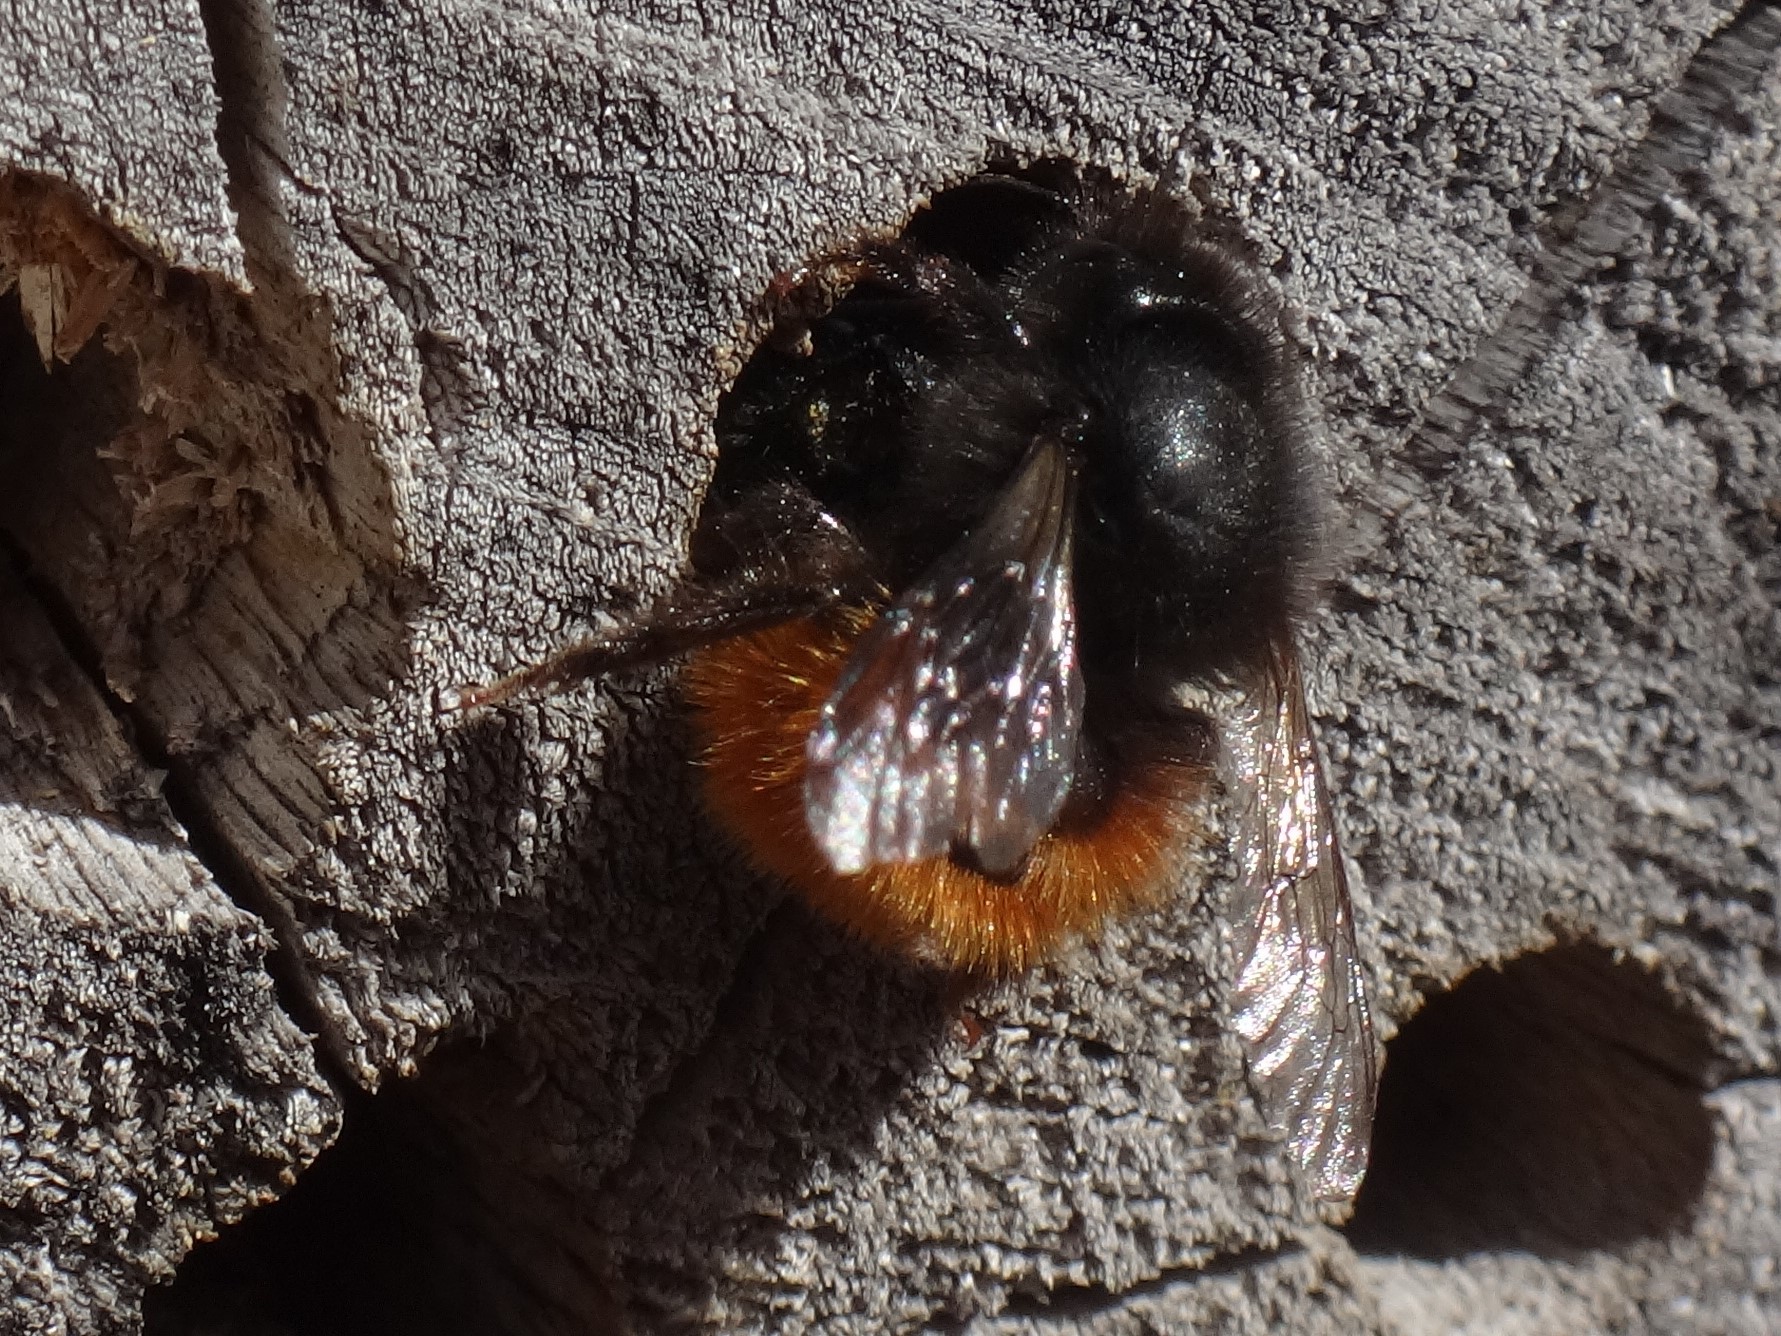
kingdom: Animalia
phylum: Arthropoda
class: Insecta
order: Hymenoptera
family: Megachilidae
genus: Osmia
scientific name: Osmia cornuta
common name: Mason bee
